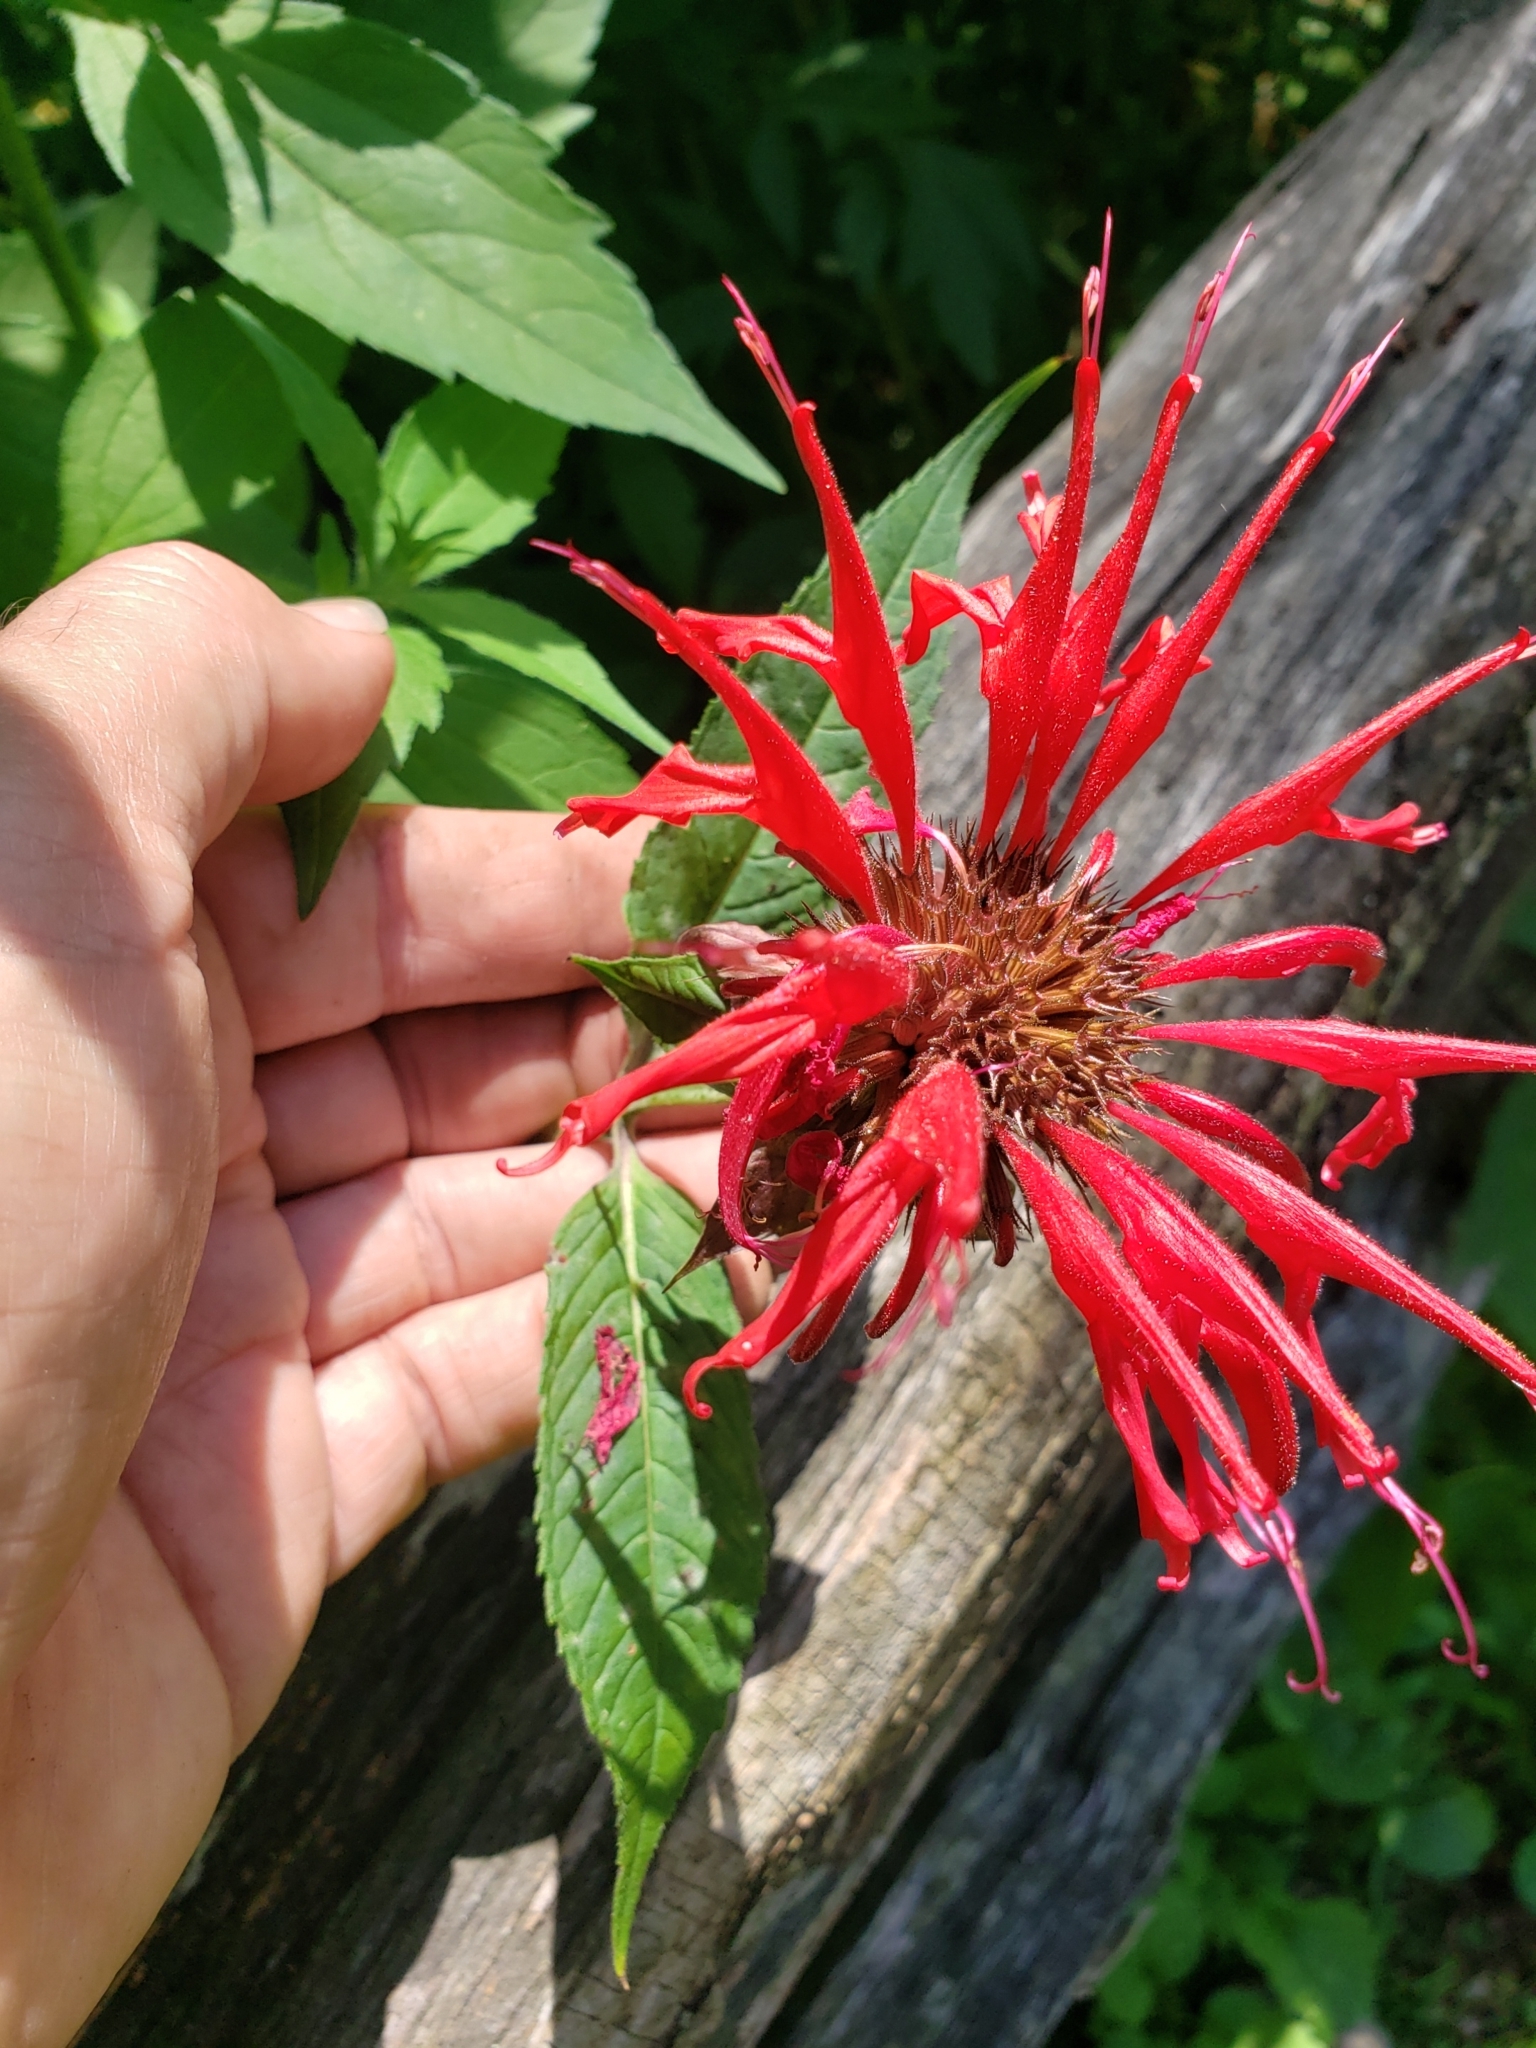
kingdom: Fungi
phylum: Ascomycota
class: Leotiomycetes
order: Helotiales
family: Erysiphaceae
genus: Golovinomyces
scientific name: Golovinomyces monardae
